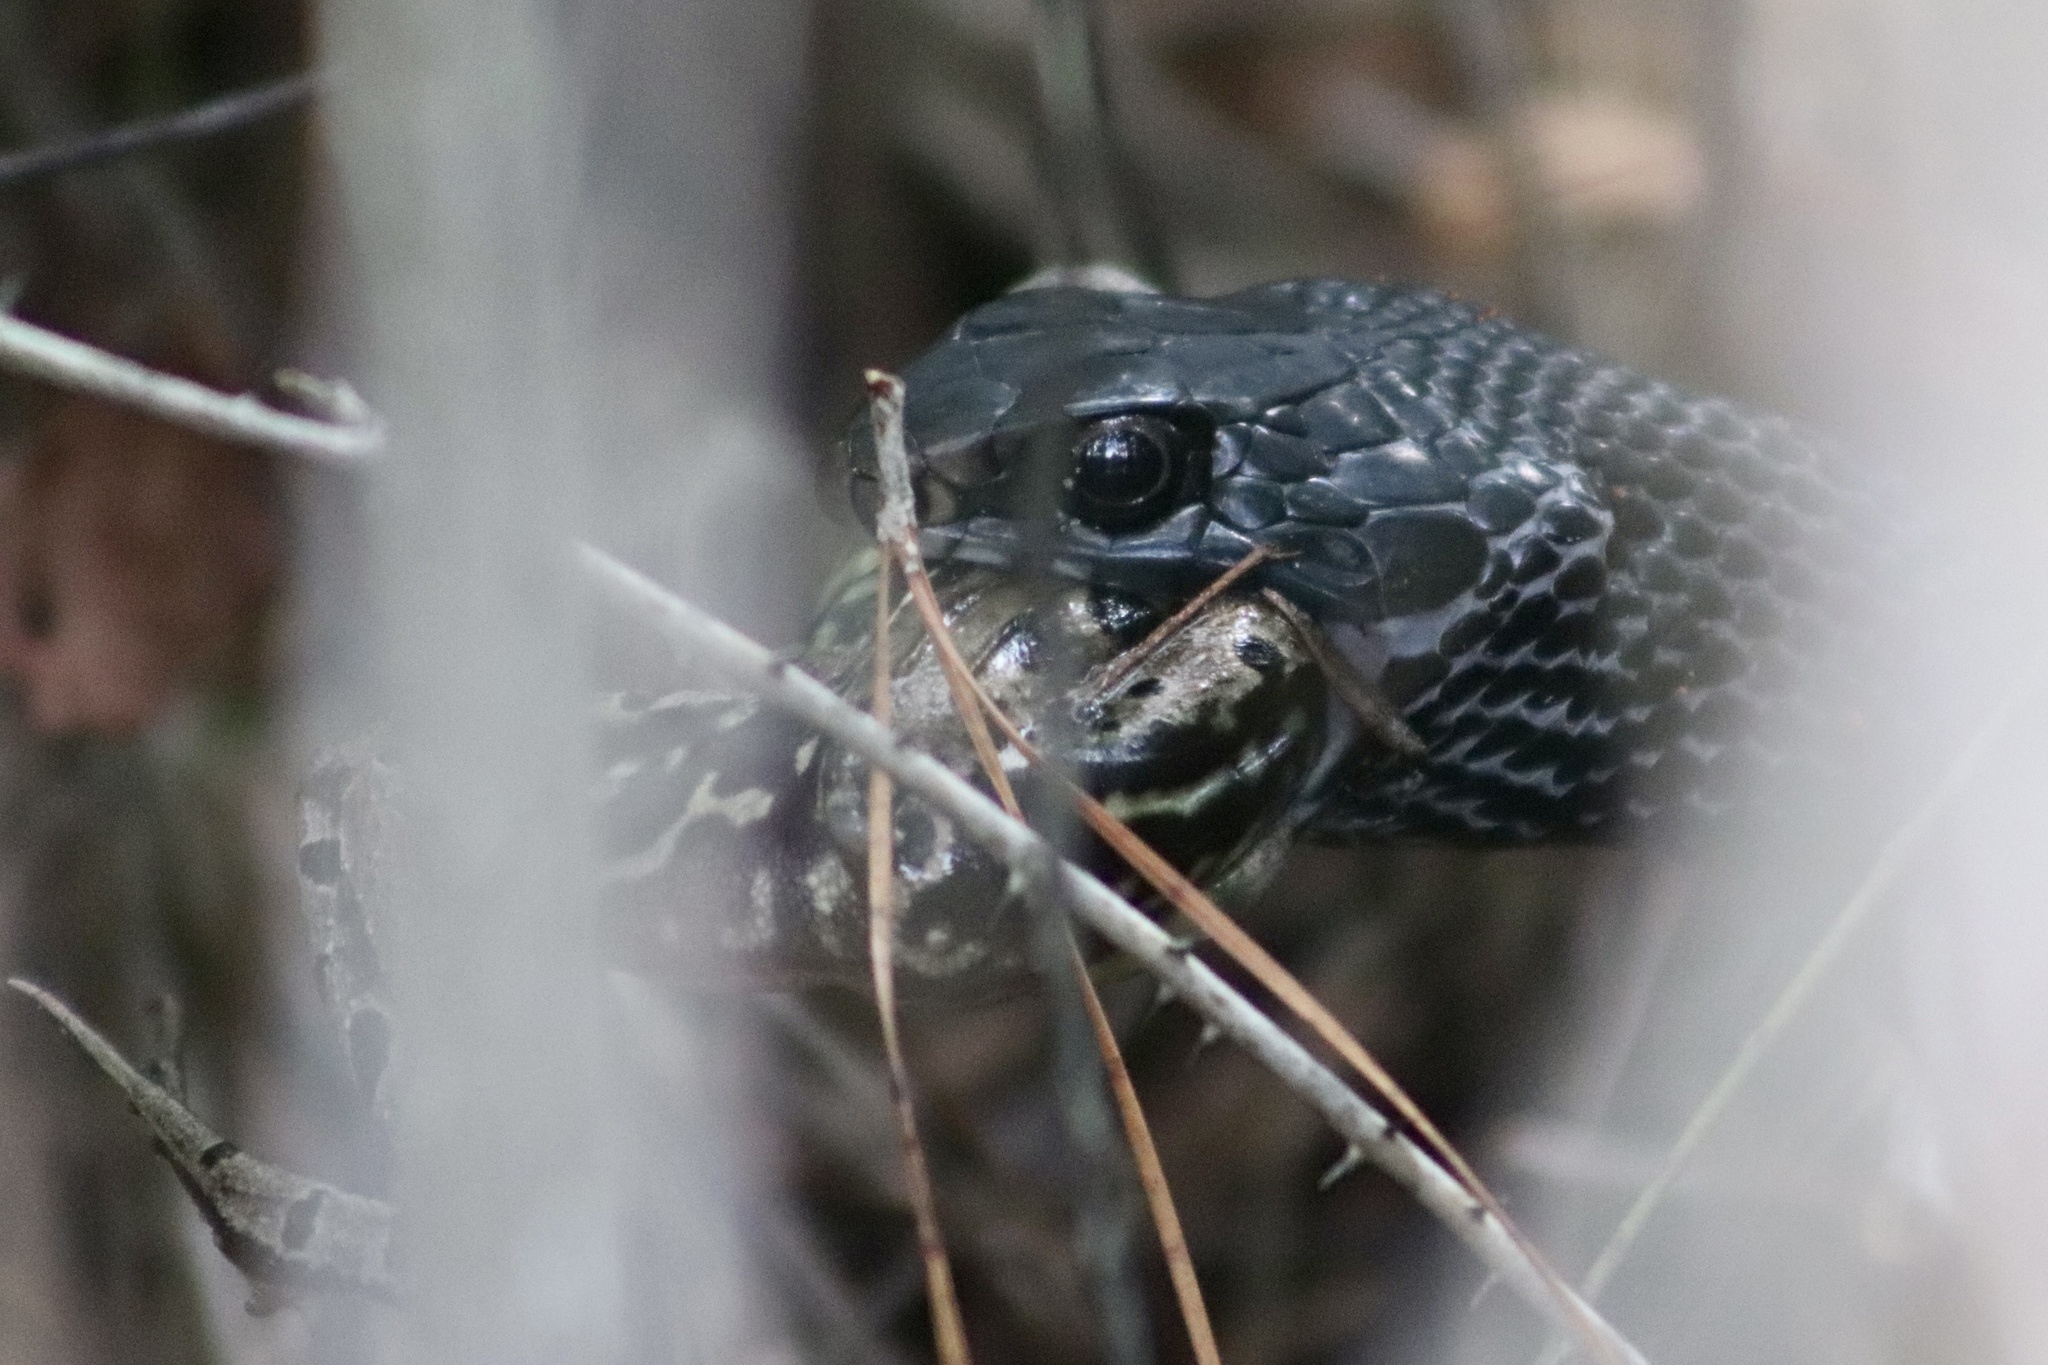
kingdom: Animalia
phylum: Chordata
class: Squamata
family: Colubridae
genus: Coluber
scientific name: Coluber constrictor
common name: Eastern racer
